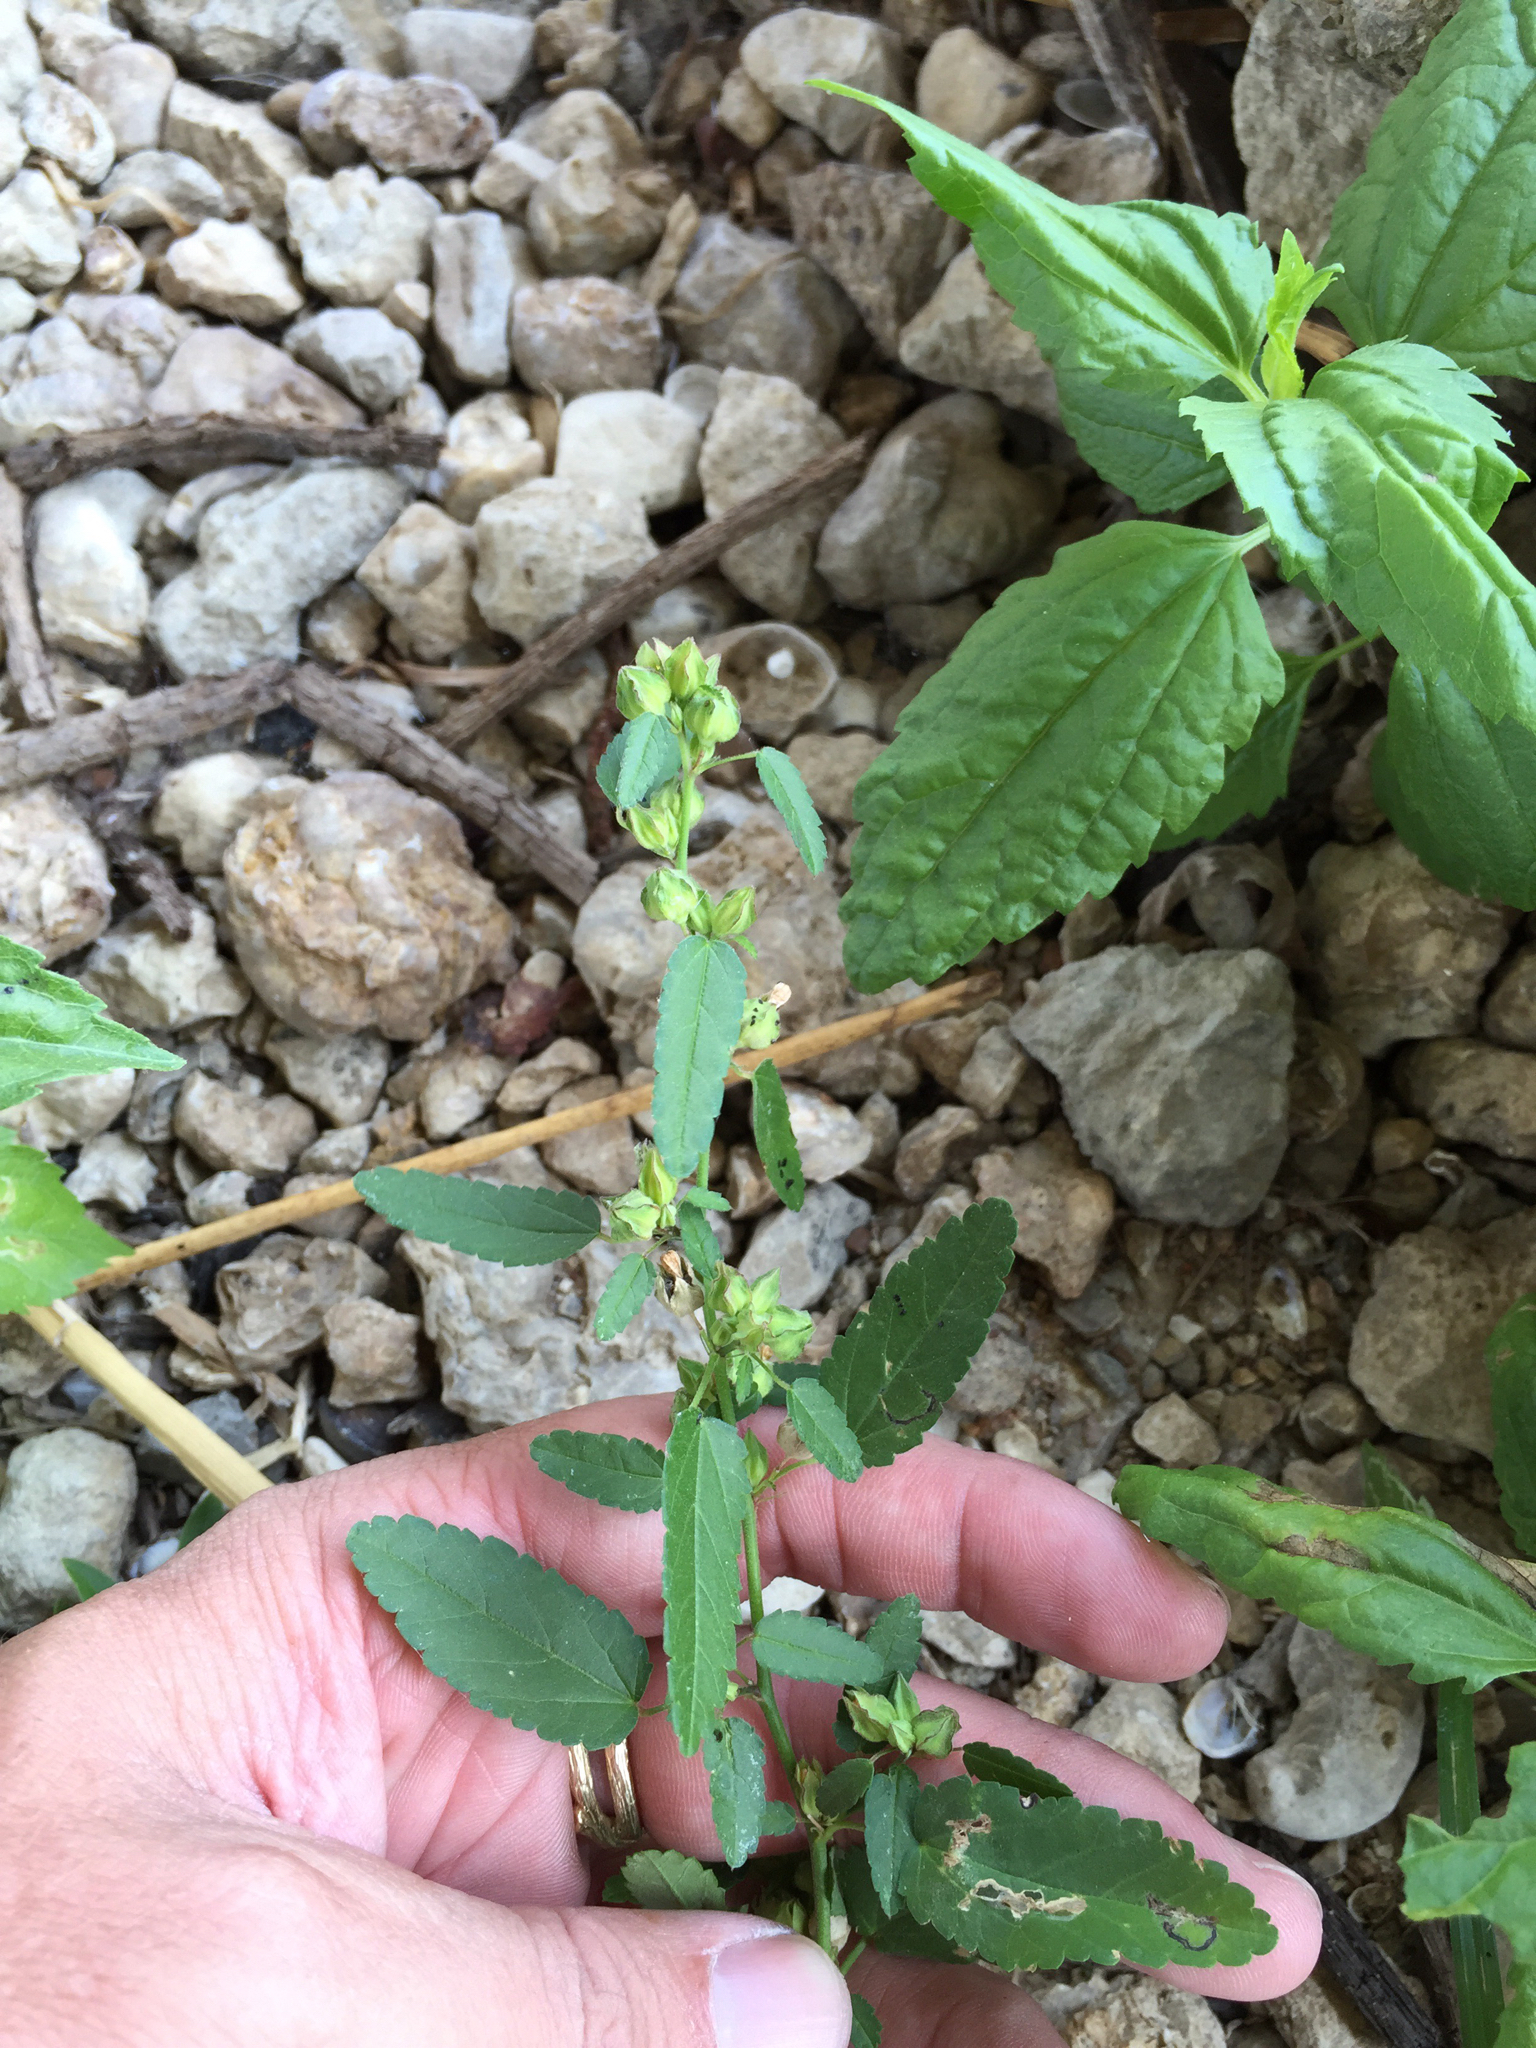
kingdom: Plantae
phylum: Tracheophyta
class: Magnoliopsida
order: Malvales
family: Malvaceae
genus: Sida
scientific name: Sida spinosa
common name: Prickly fanpetals
